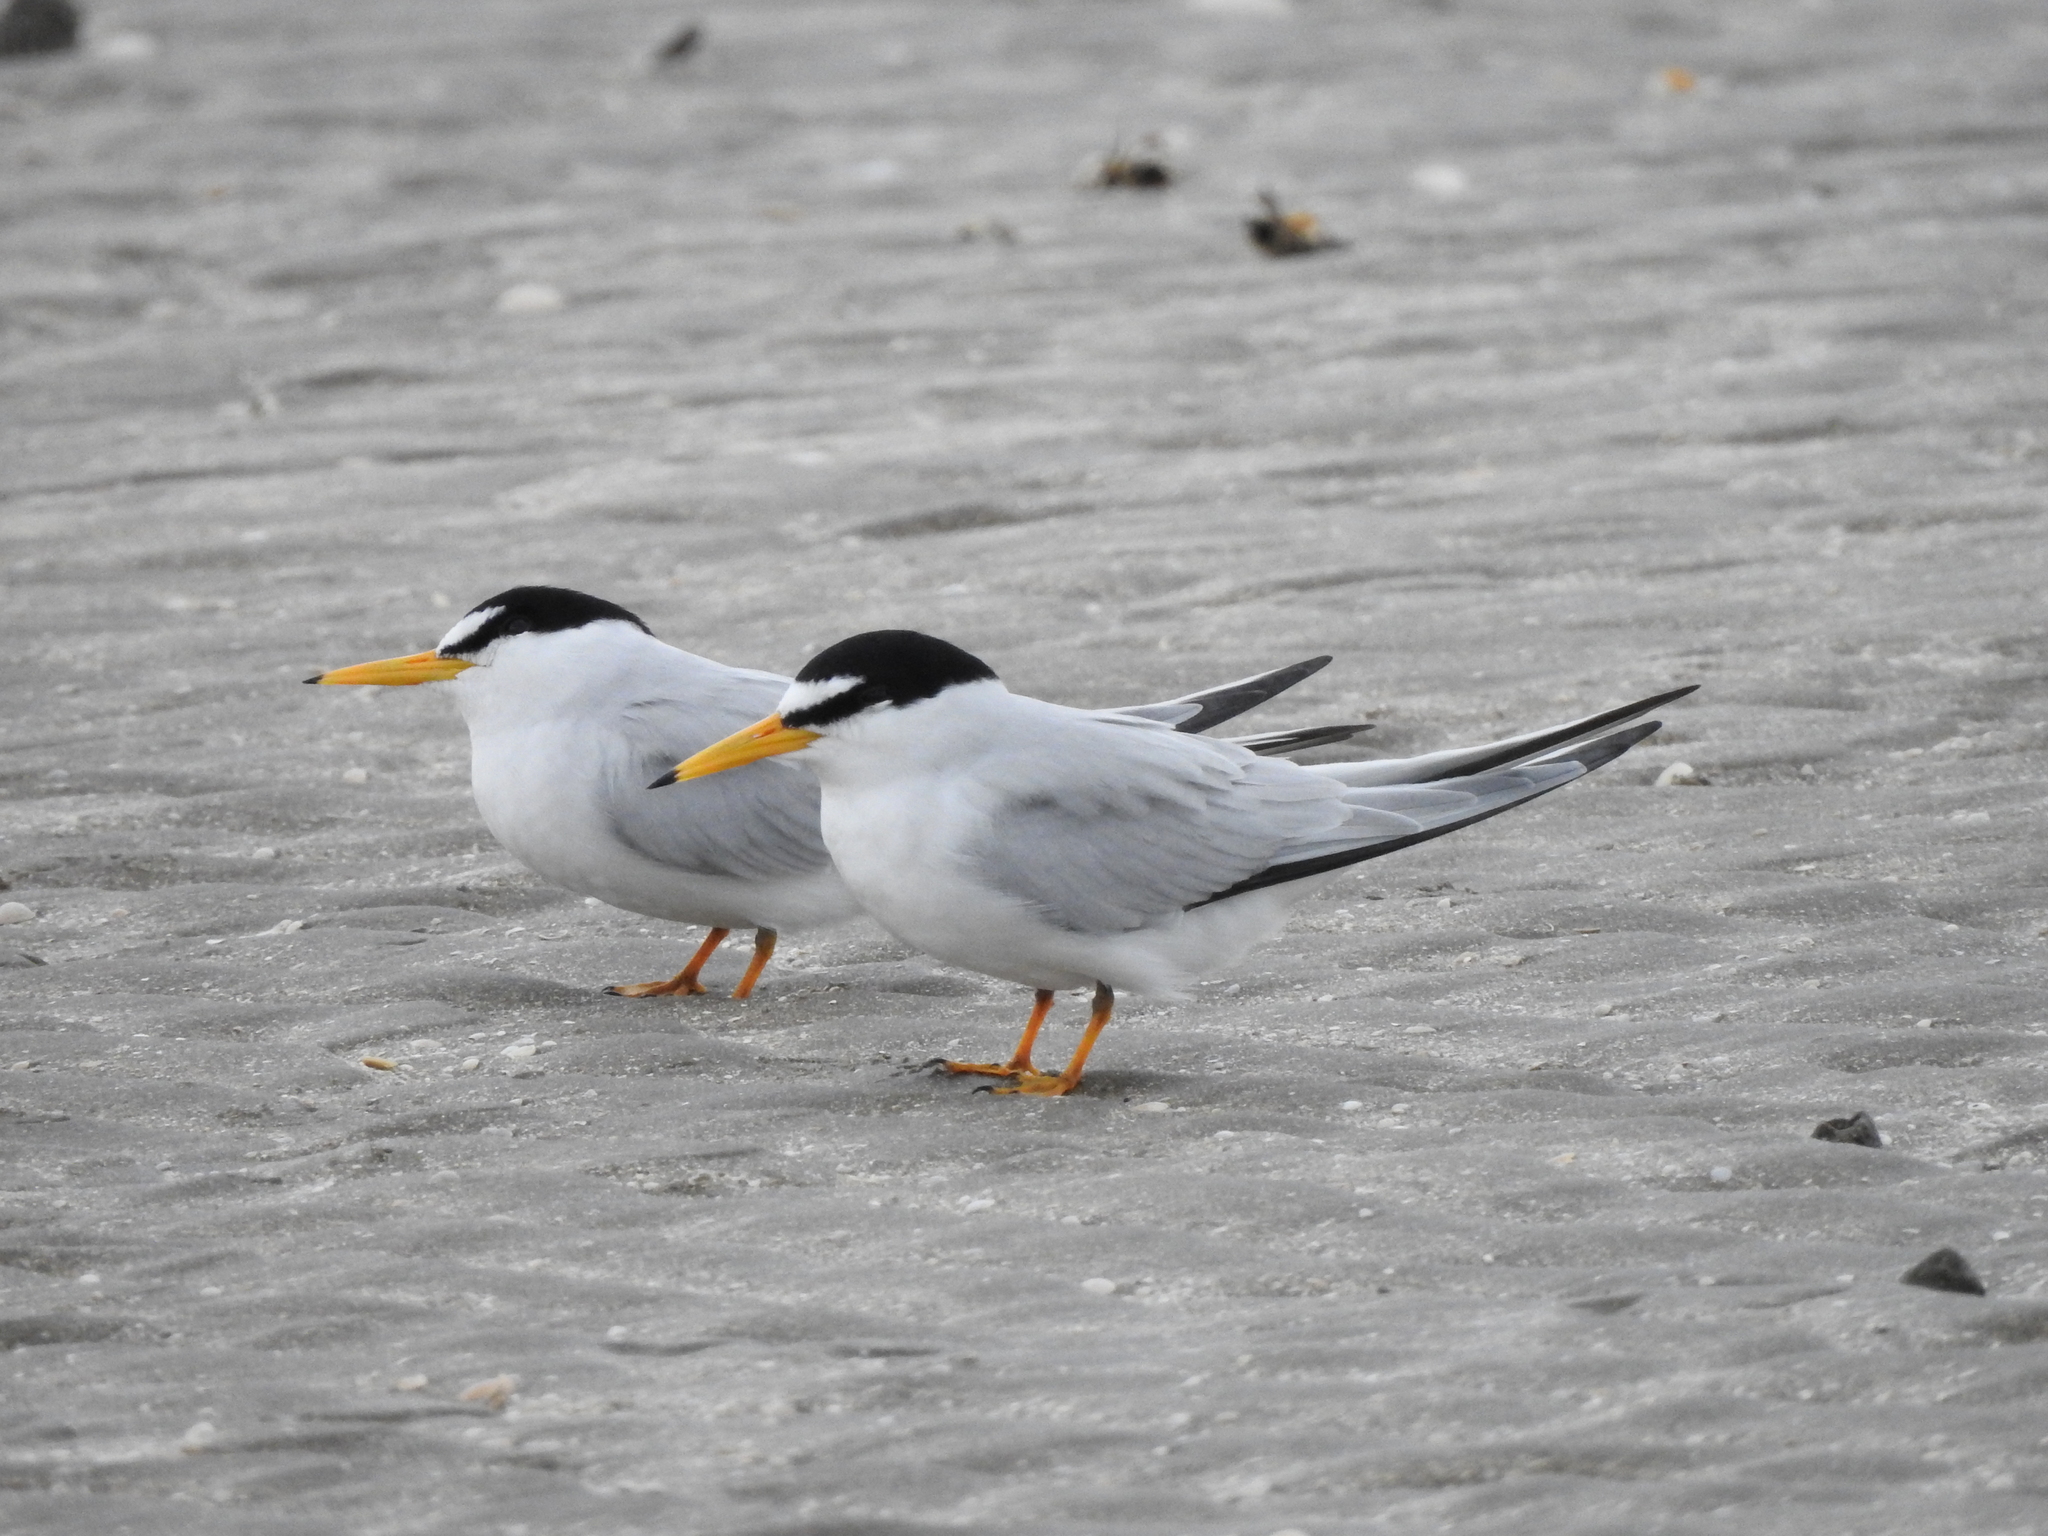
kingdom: Animalia
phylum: Chordata
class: Aves
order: Charadriiformes
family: Laridae
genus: Sternula
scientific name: Sternula antillarum
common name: Least tern
